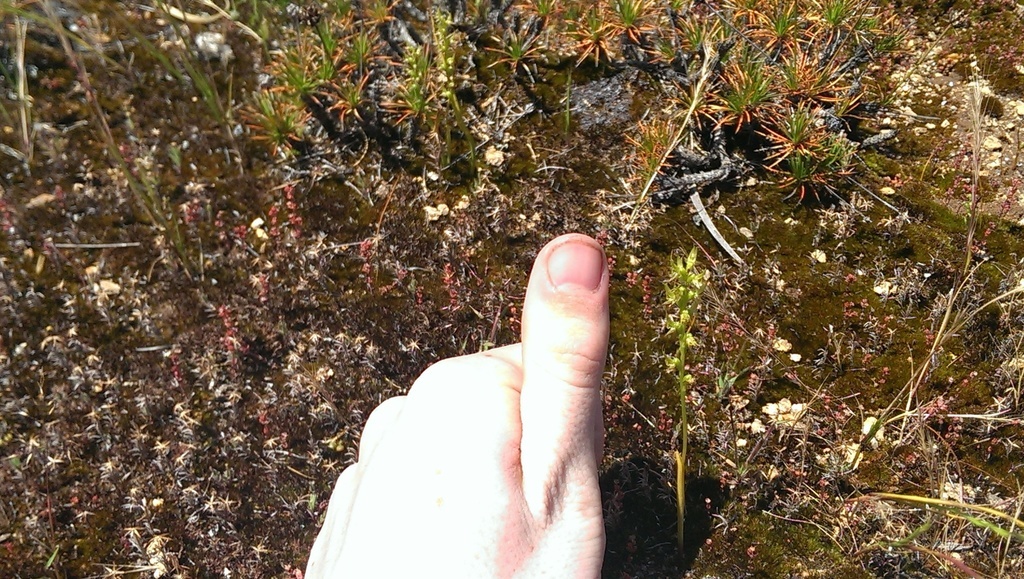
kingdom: Plantae
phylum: Tracheophyta
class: Liliopsida
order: Asparagales
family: Orchidaceae
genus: Prasophyllum
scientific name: Prasophyllum gracile
